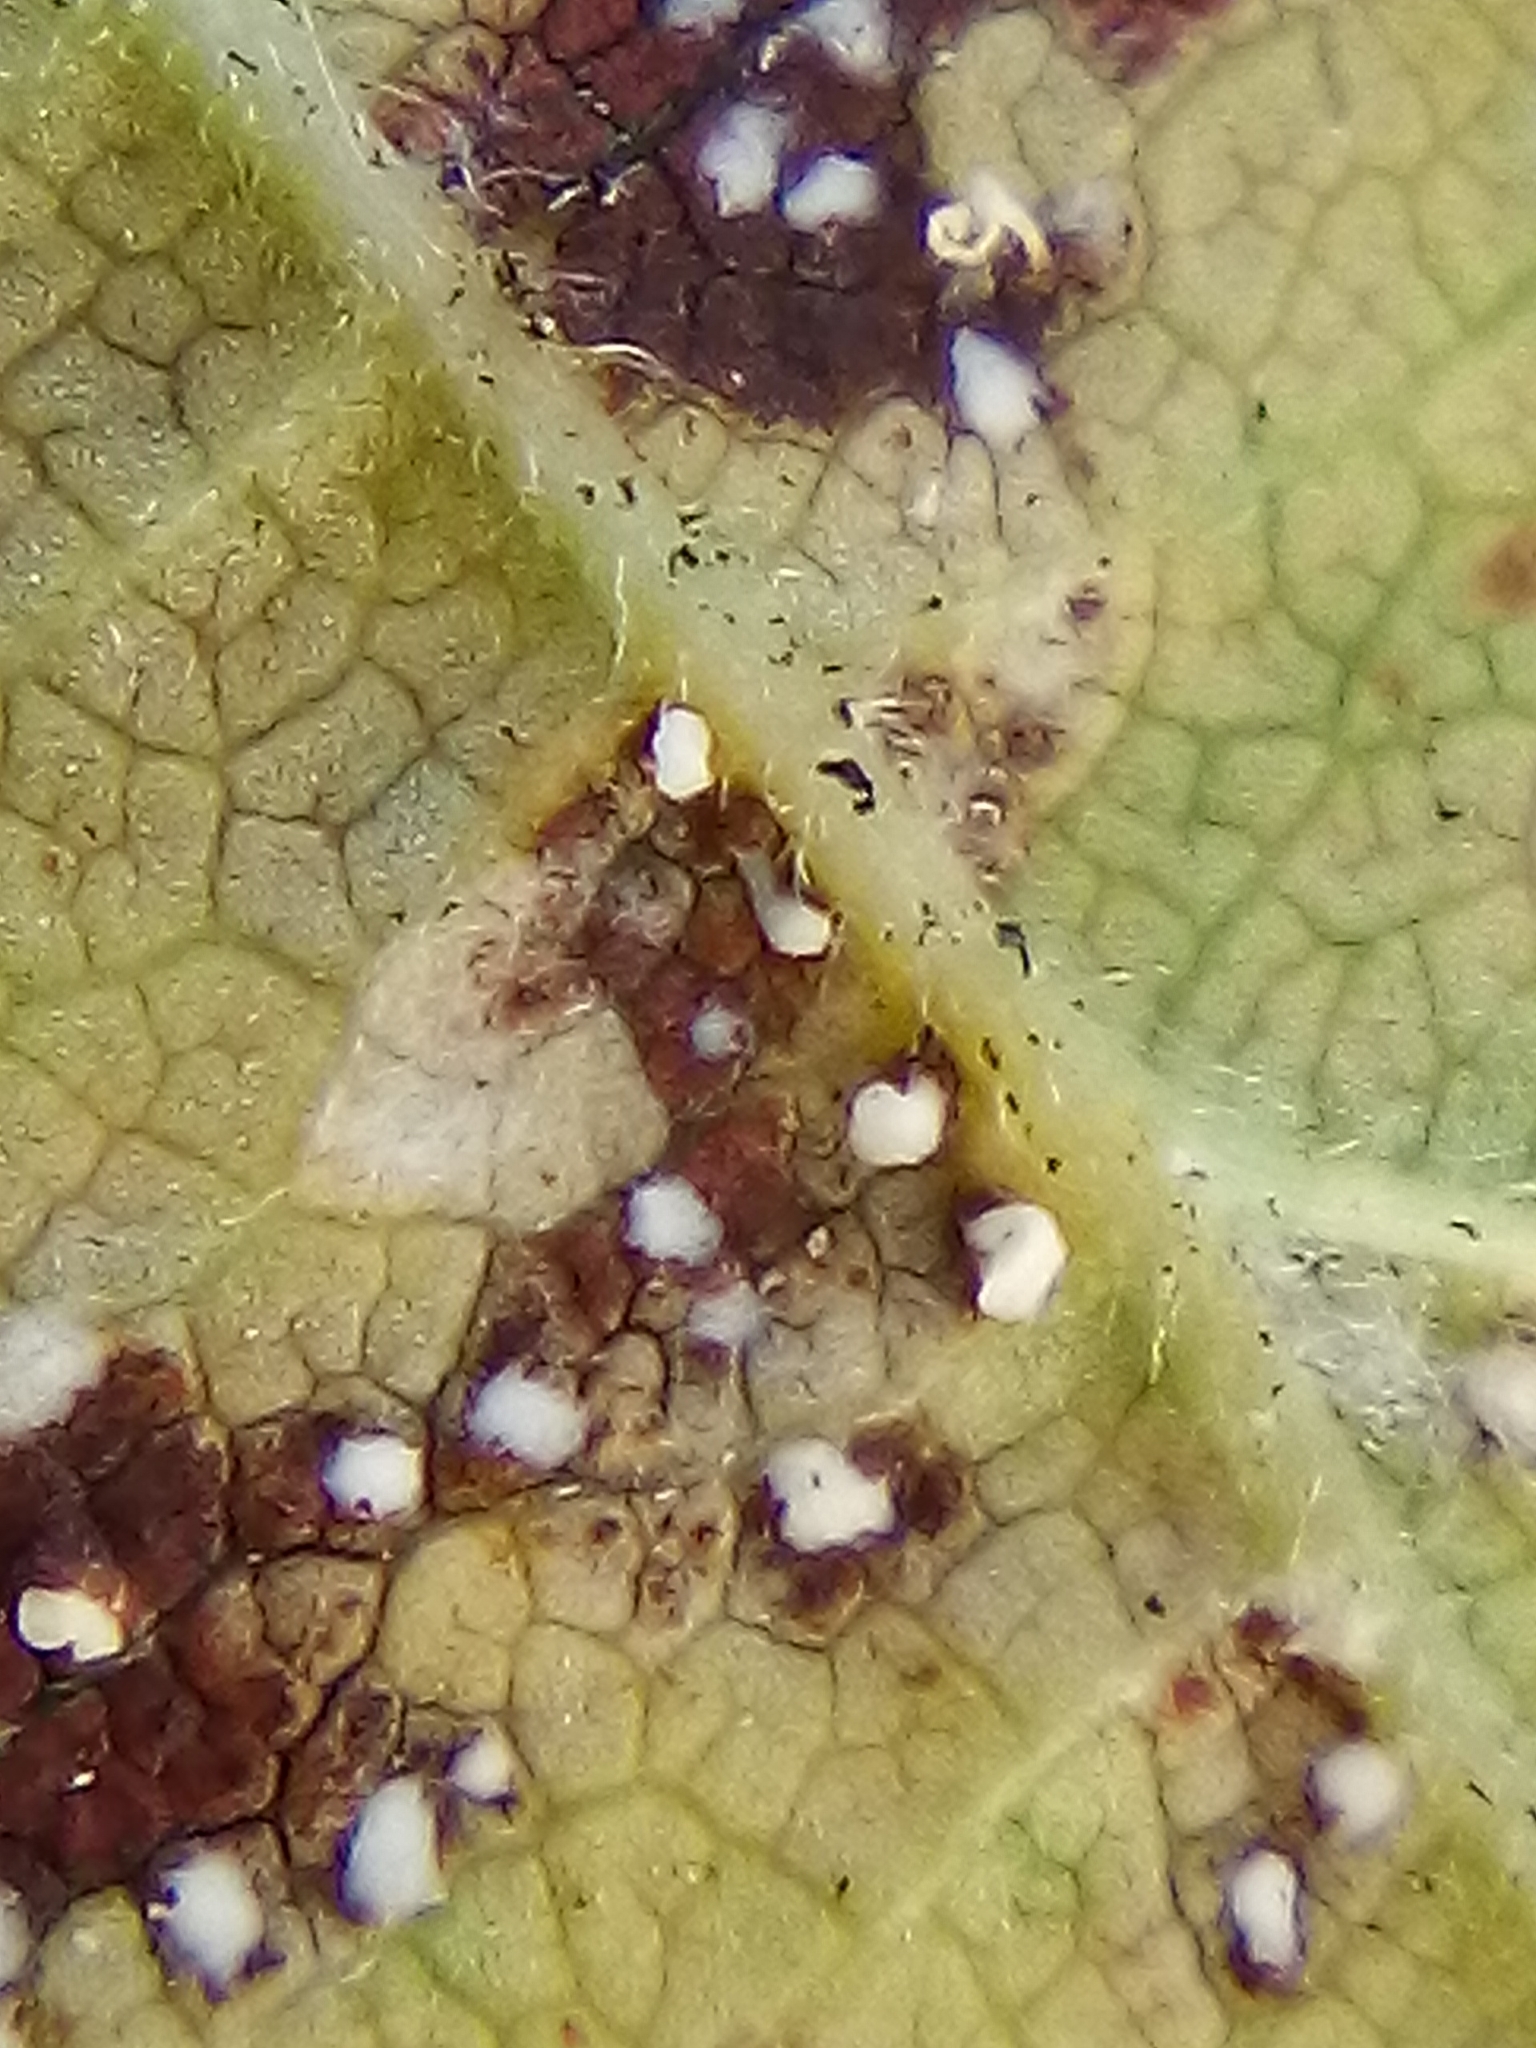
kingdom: Fungi
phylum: Ascomycota
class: Dothideomycetes
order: Mycosphaerellales
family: Mycosphaerellaceae
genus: Mycosphaerella
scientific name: Mycosphaerella ulmi
